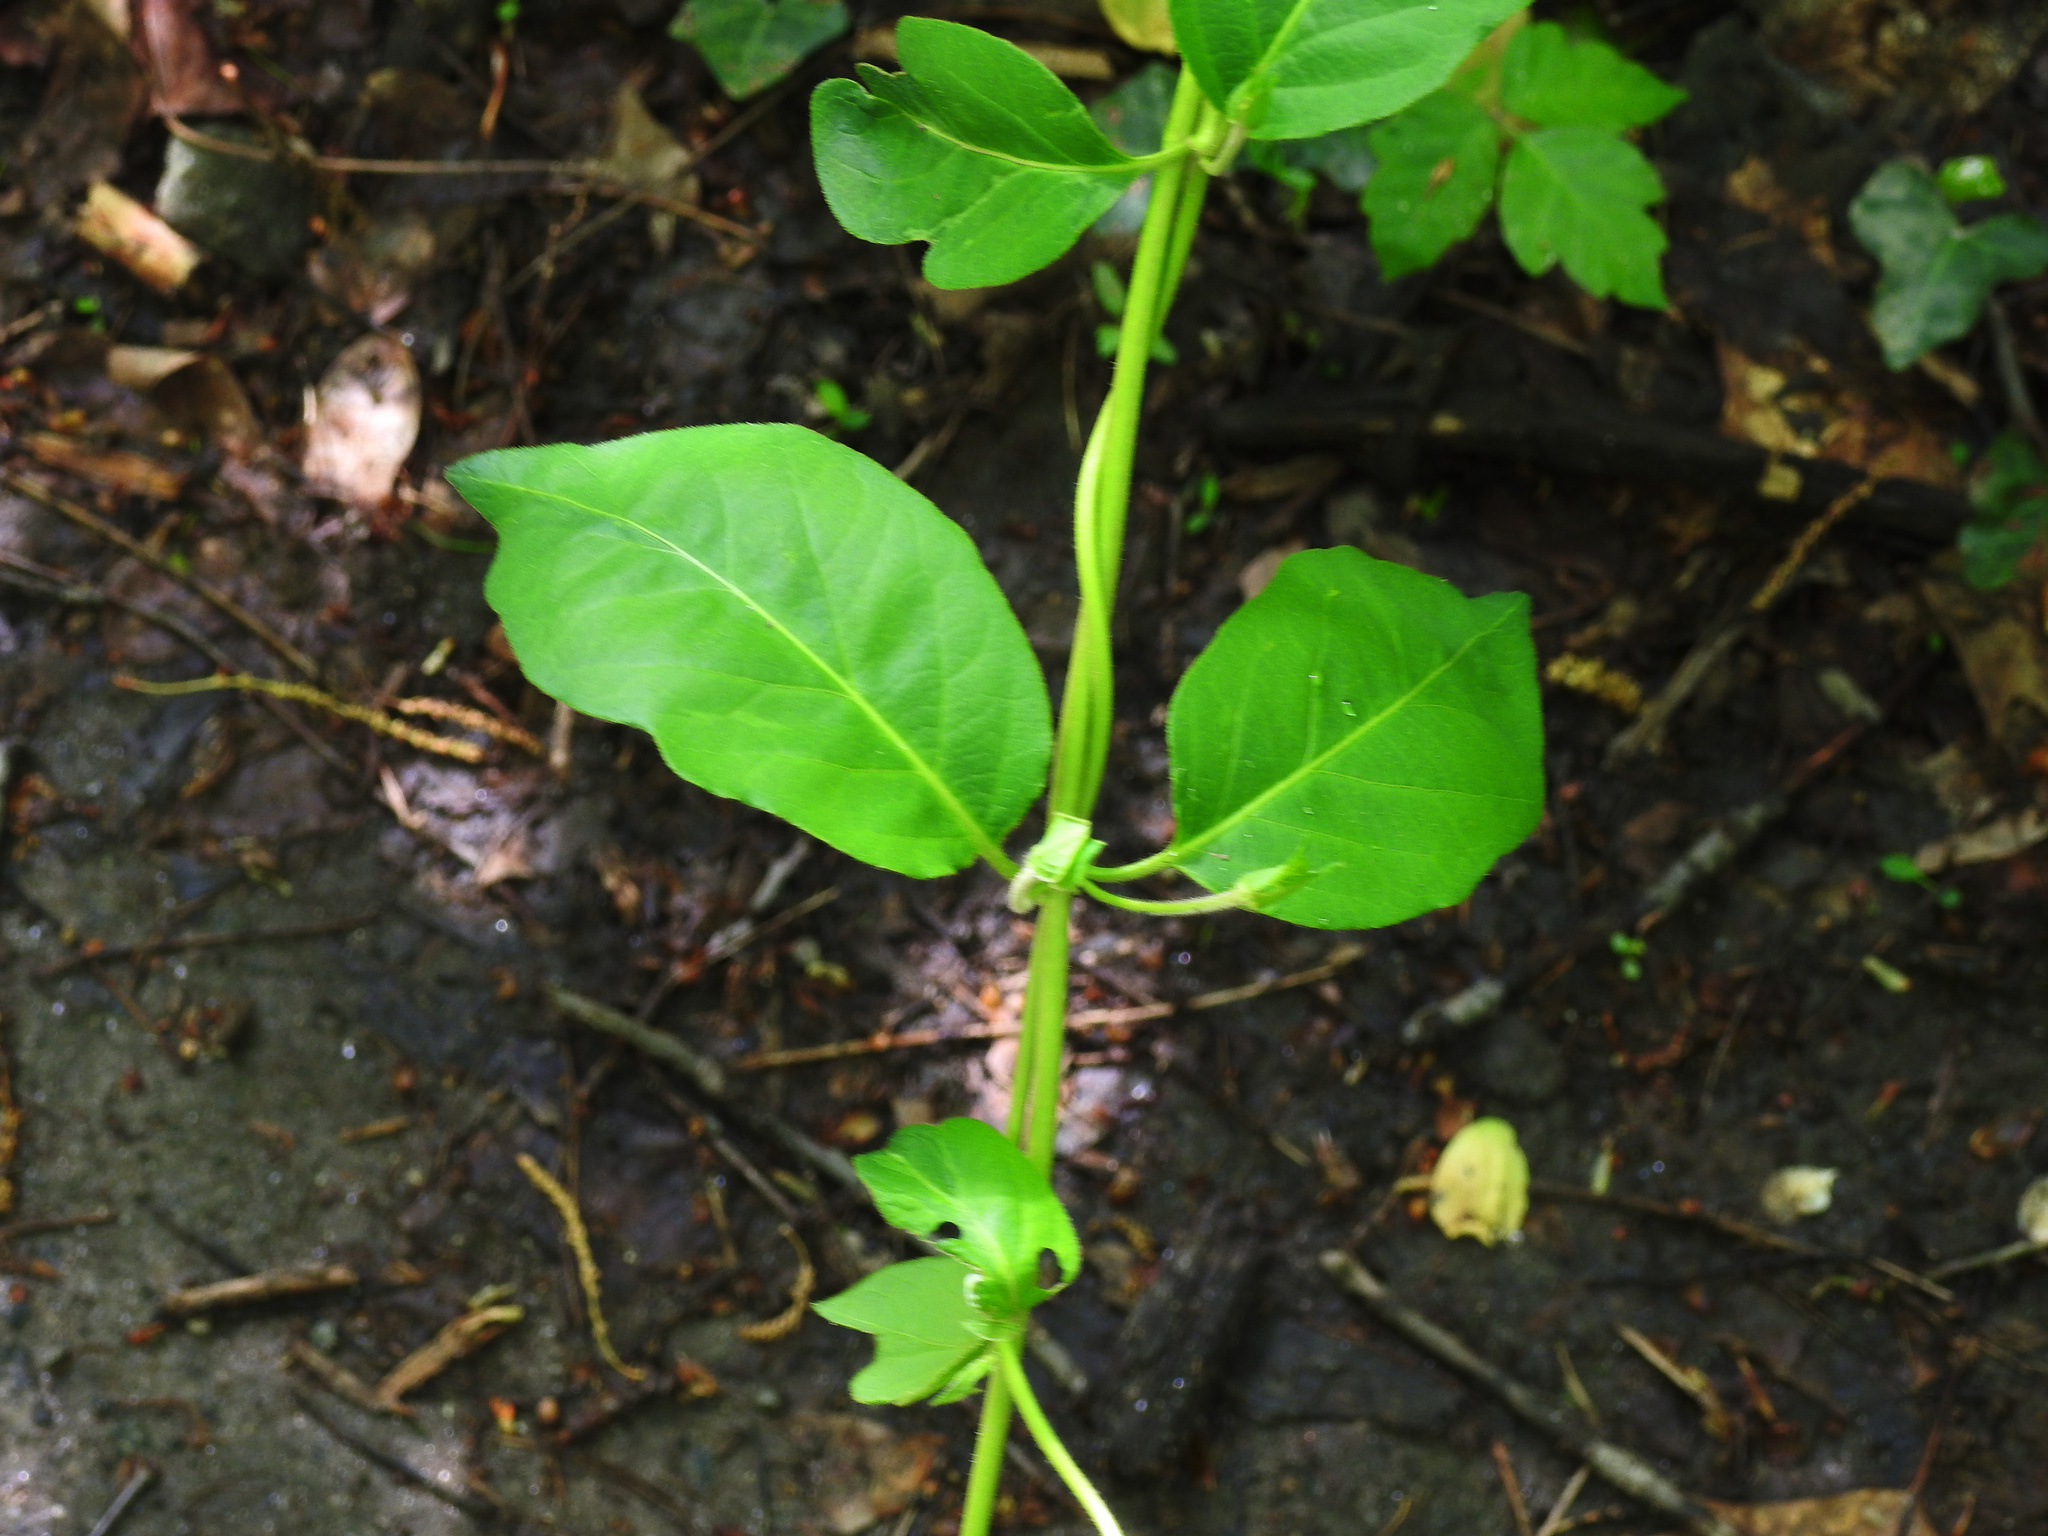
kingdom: Plantae
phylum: Tracheophyta
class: Magnoliopsida
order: Dipsacales
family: Caprifoliaceae
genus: Lonicera
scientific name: Lonicera japonica
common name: Japanese honeysuckle
